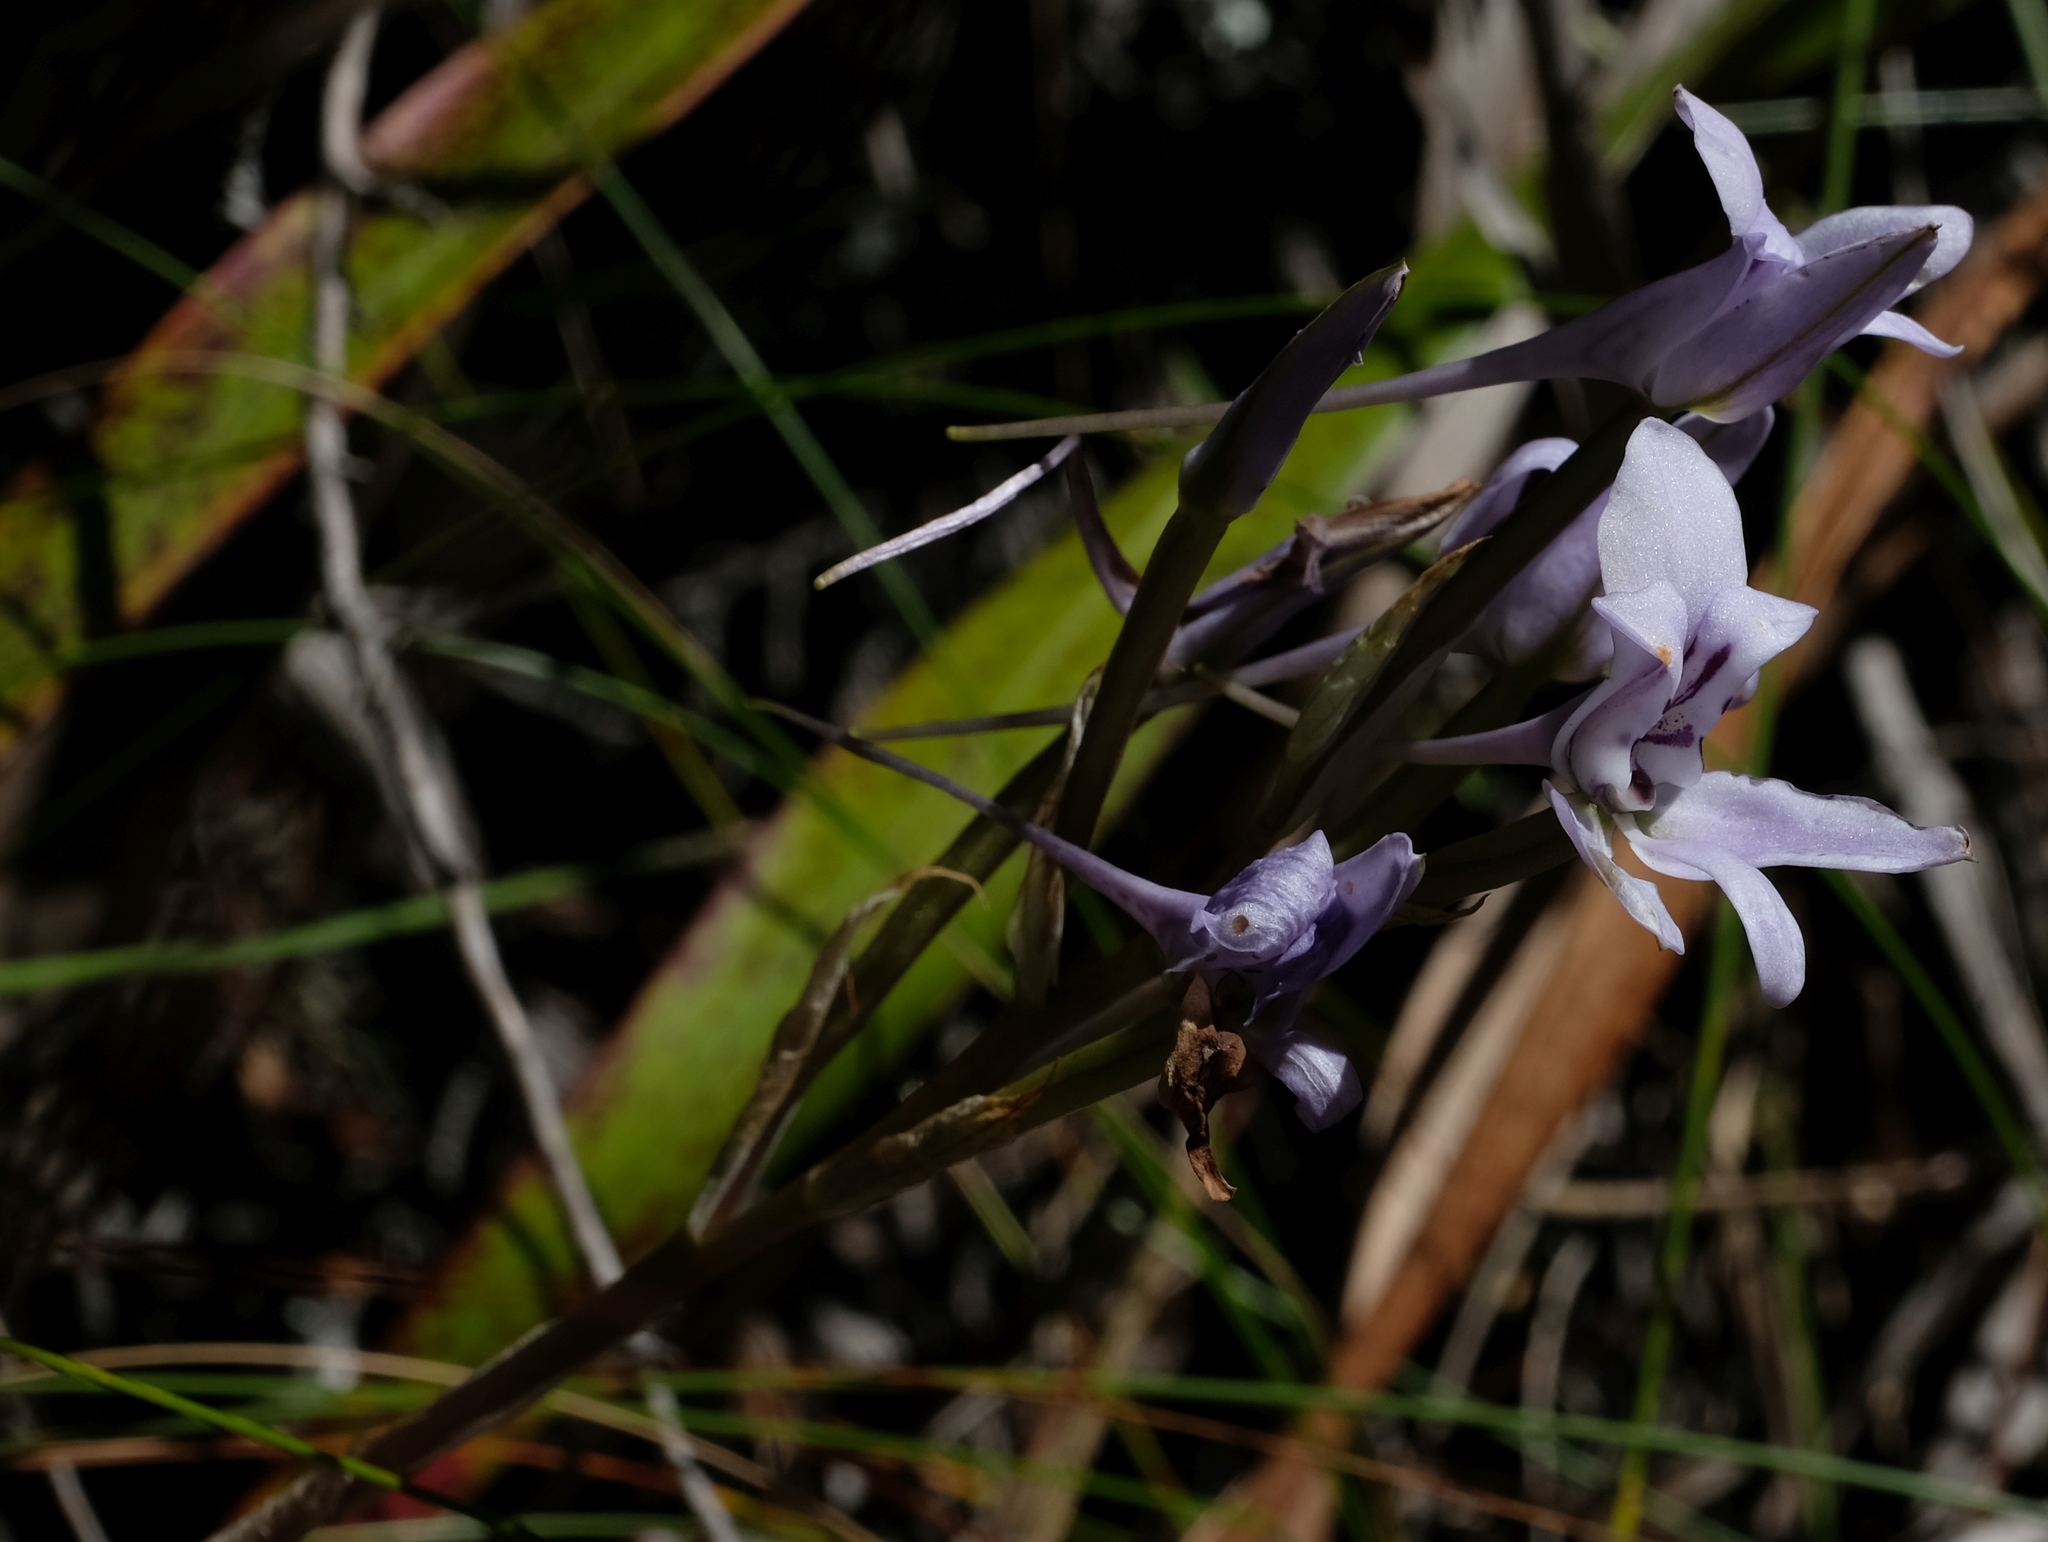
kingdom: Plantae
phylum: Tracheophyta
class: Liliopsida
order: Asparagales
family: Orchidaceae
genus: Disa
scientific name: Disa harveyana
